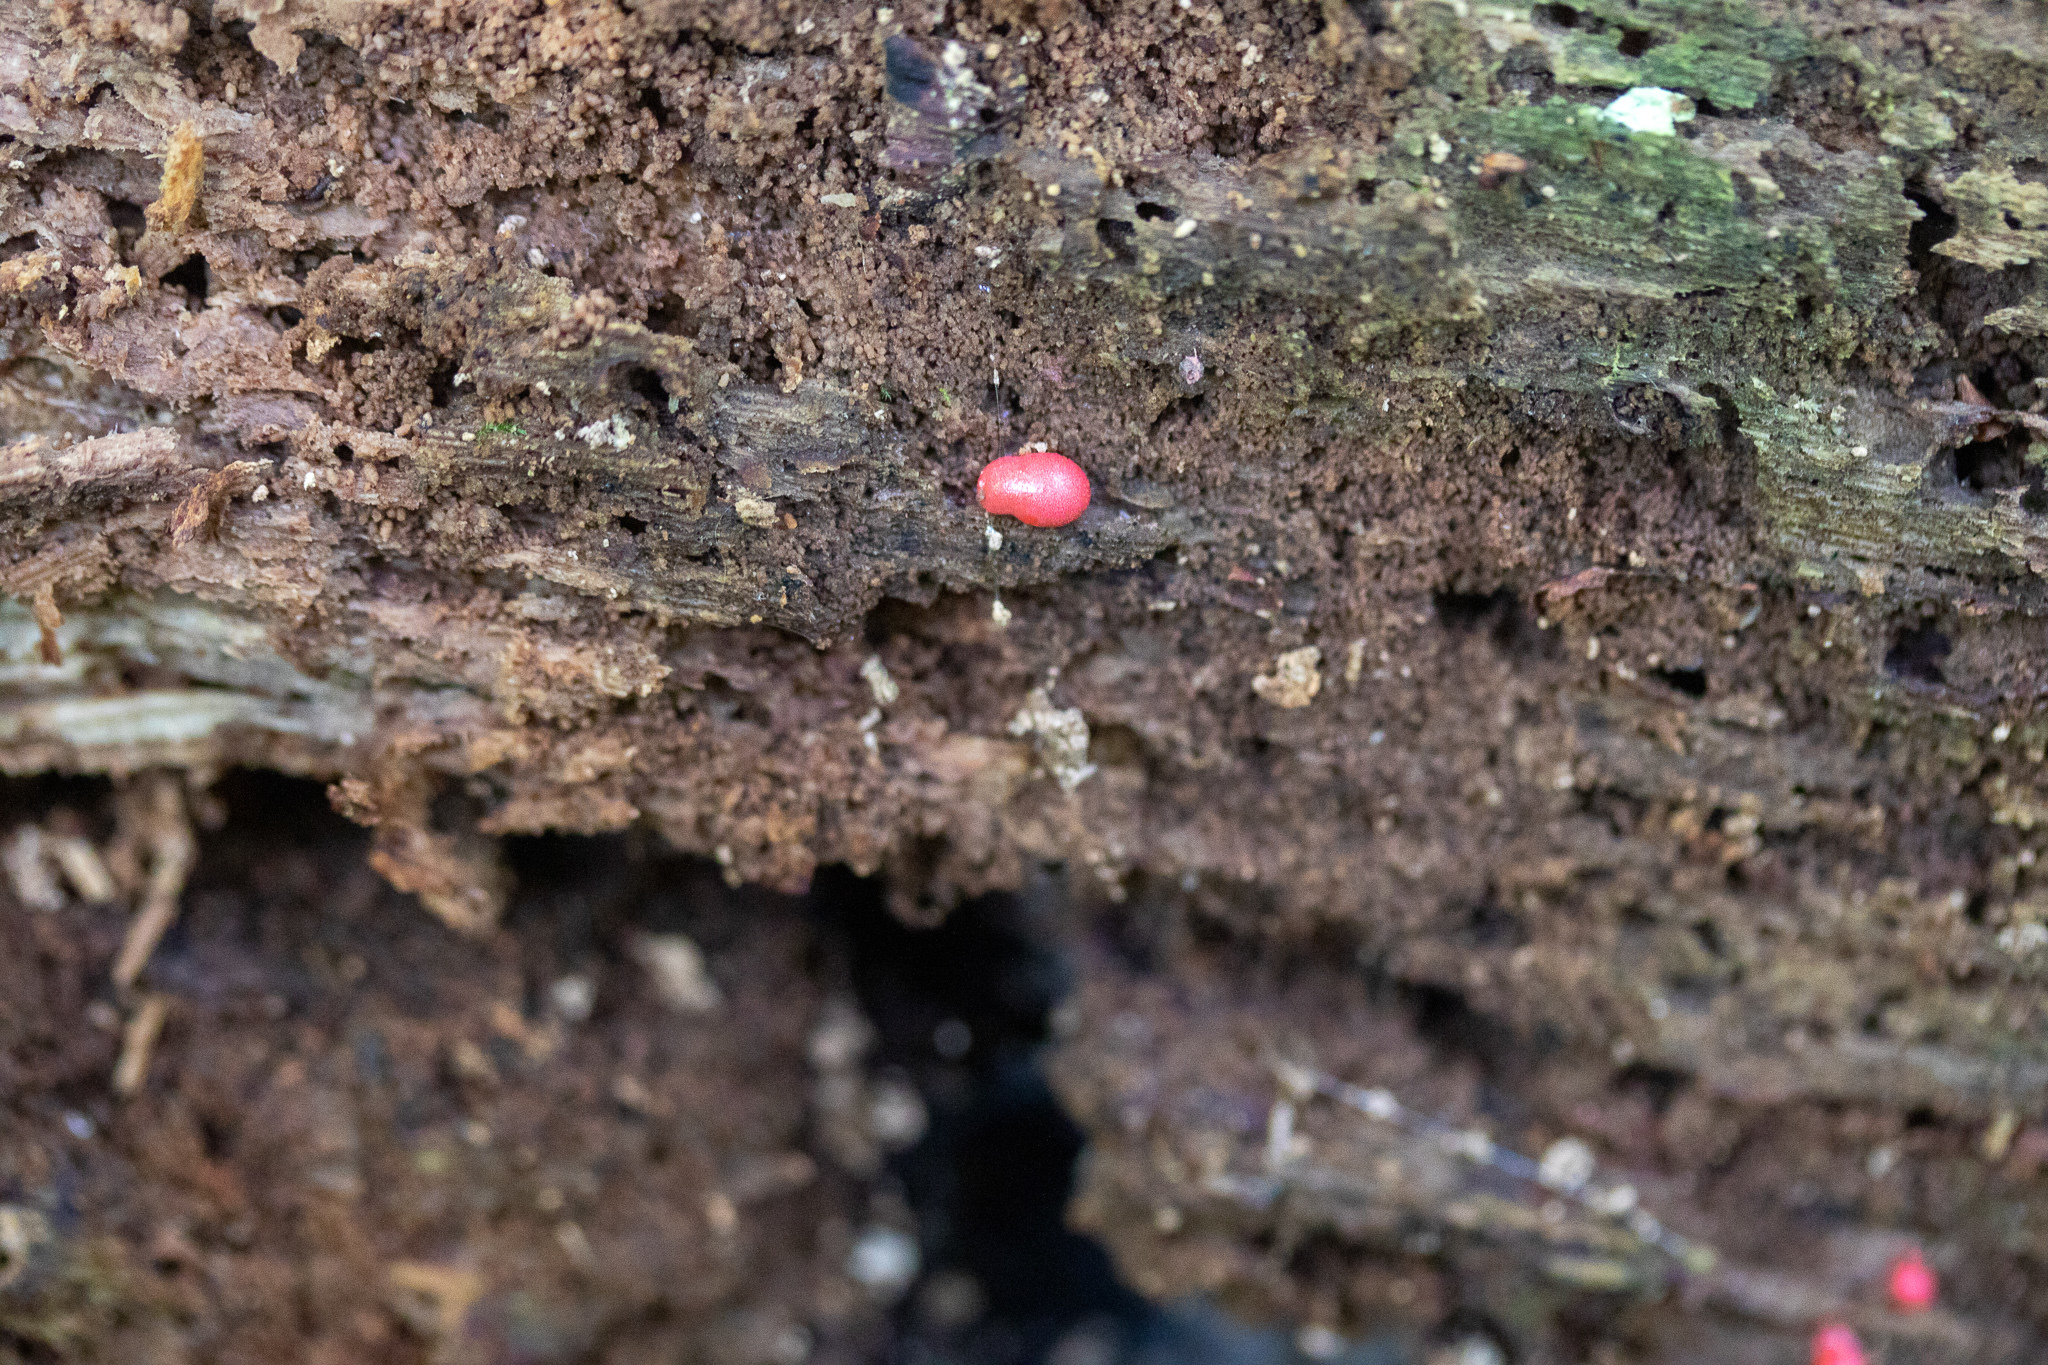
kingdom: Protozoa
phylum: Mycetozoa
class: Myxomycetes
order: Cribrariales
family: Tubiferaceae
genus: Lycogala
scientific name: Lycogala epidendrum
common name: Wolf's milk
